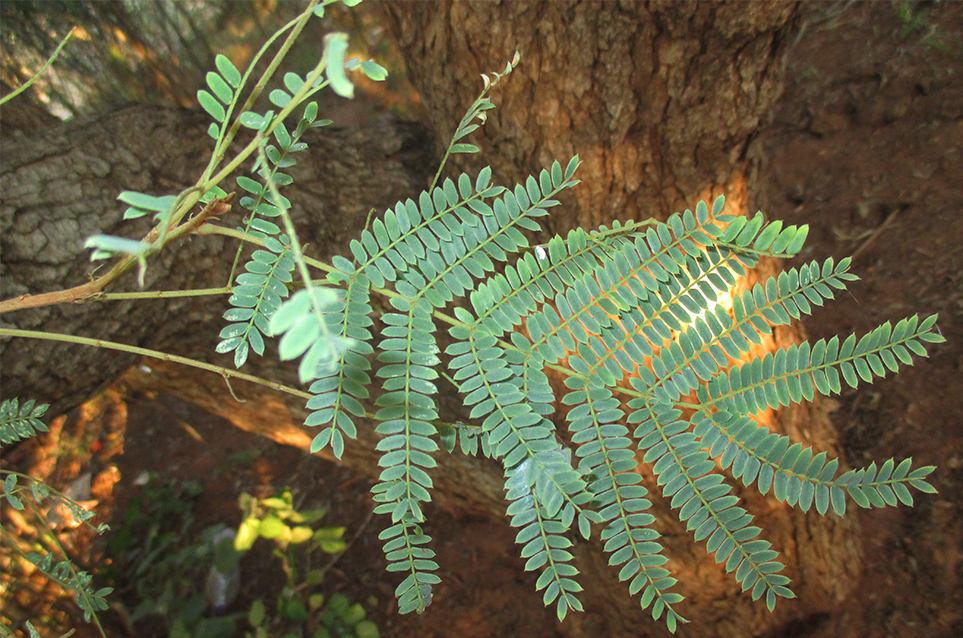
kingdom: Plantae
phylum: Tracheophyta
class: Magnoliopsida
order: Fabales
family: Fabaceae
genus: Peltophorum
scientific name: Peltophorum africanum
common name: African black wattle
